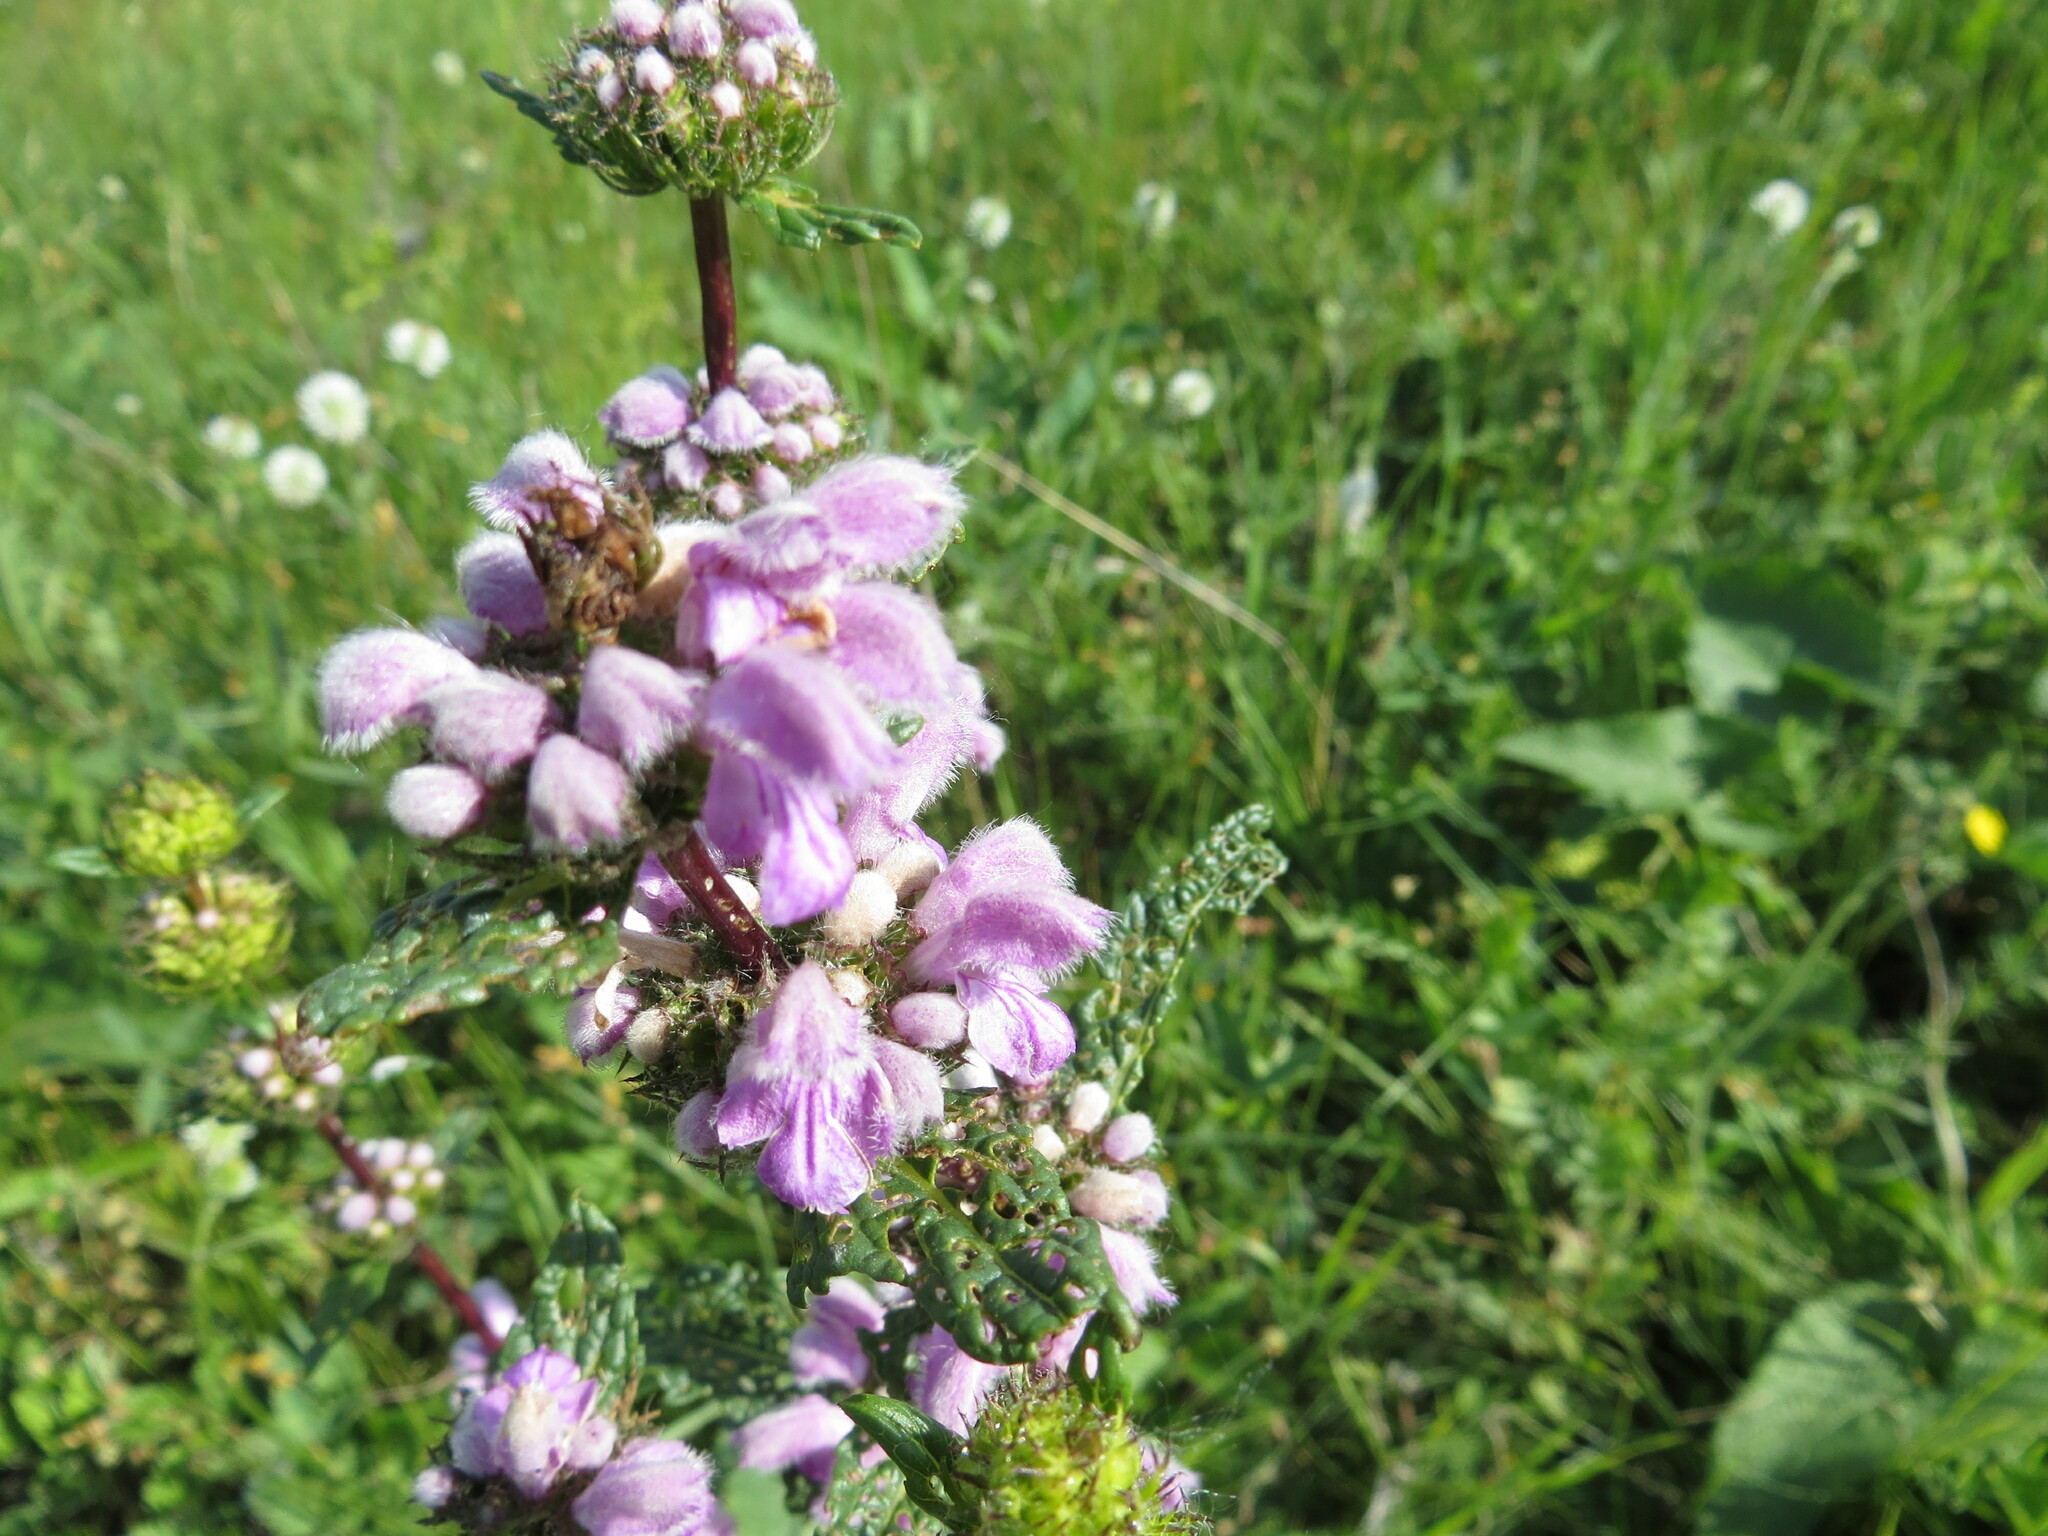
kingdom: Plantae
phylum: Tracheophyta
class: Magnoliopsida
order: Lamiales
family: Lamiaceae
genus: Phlomoides
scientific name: Phlomoides tuberosa
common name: Tuberous jerusalem sage
